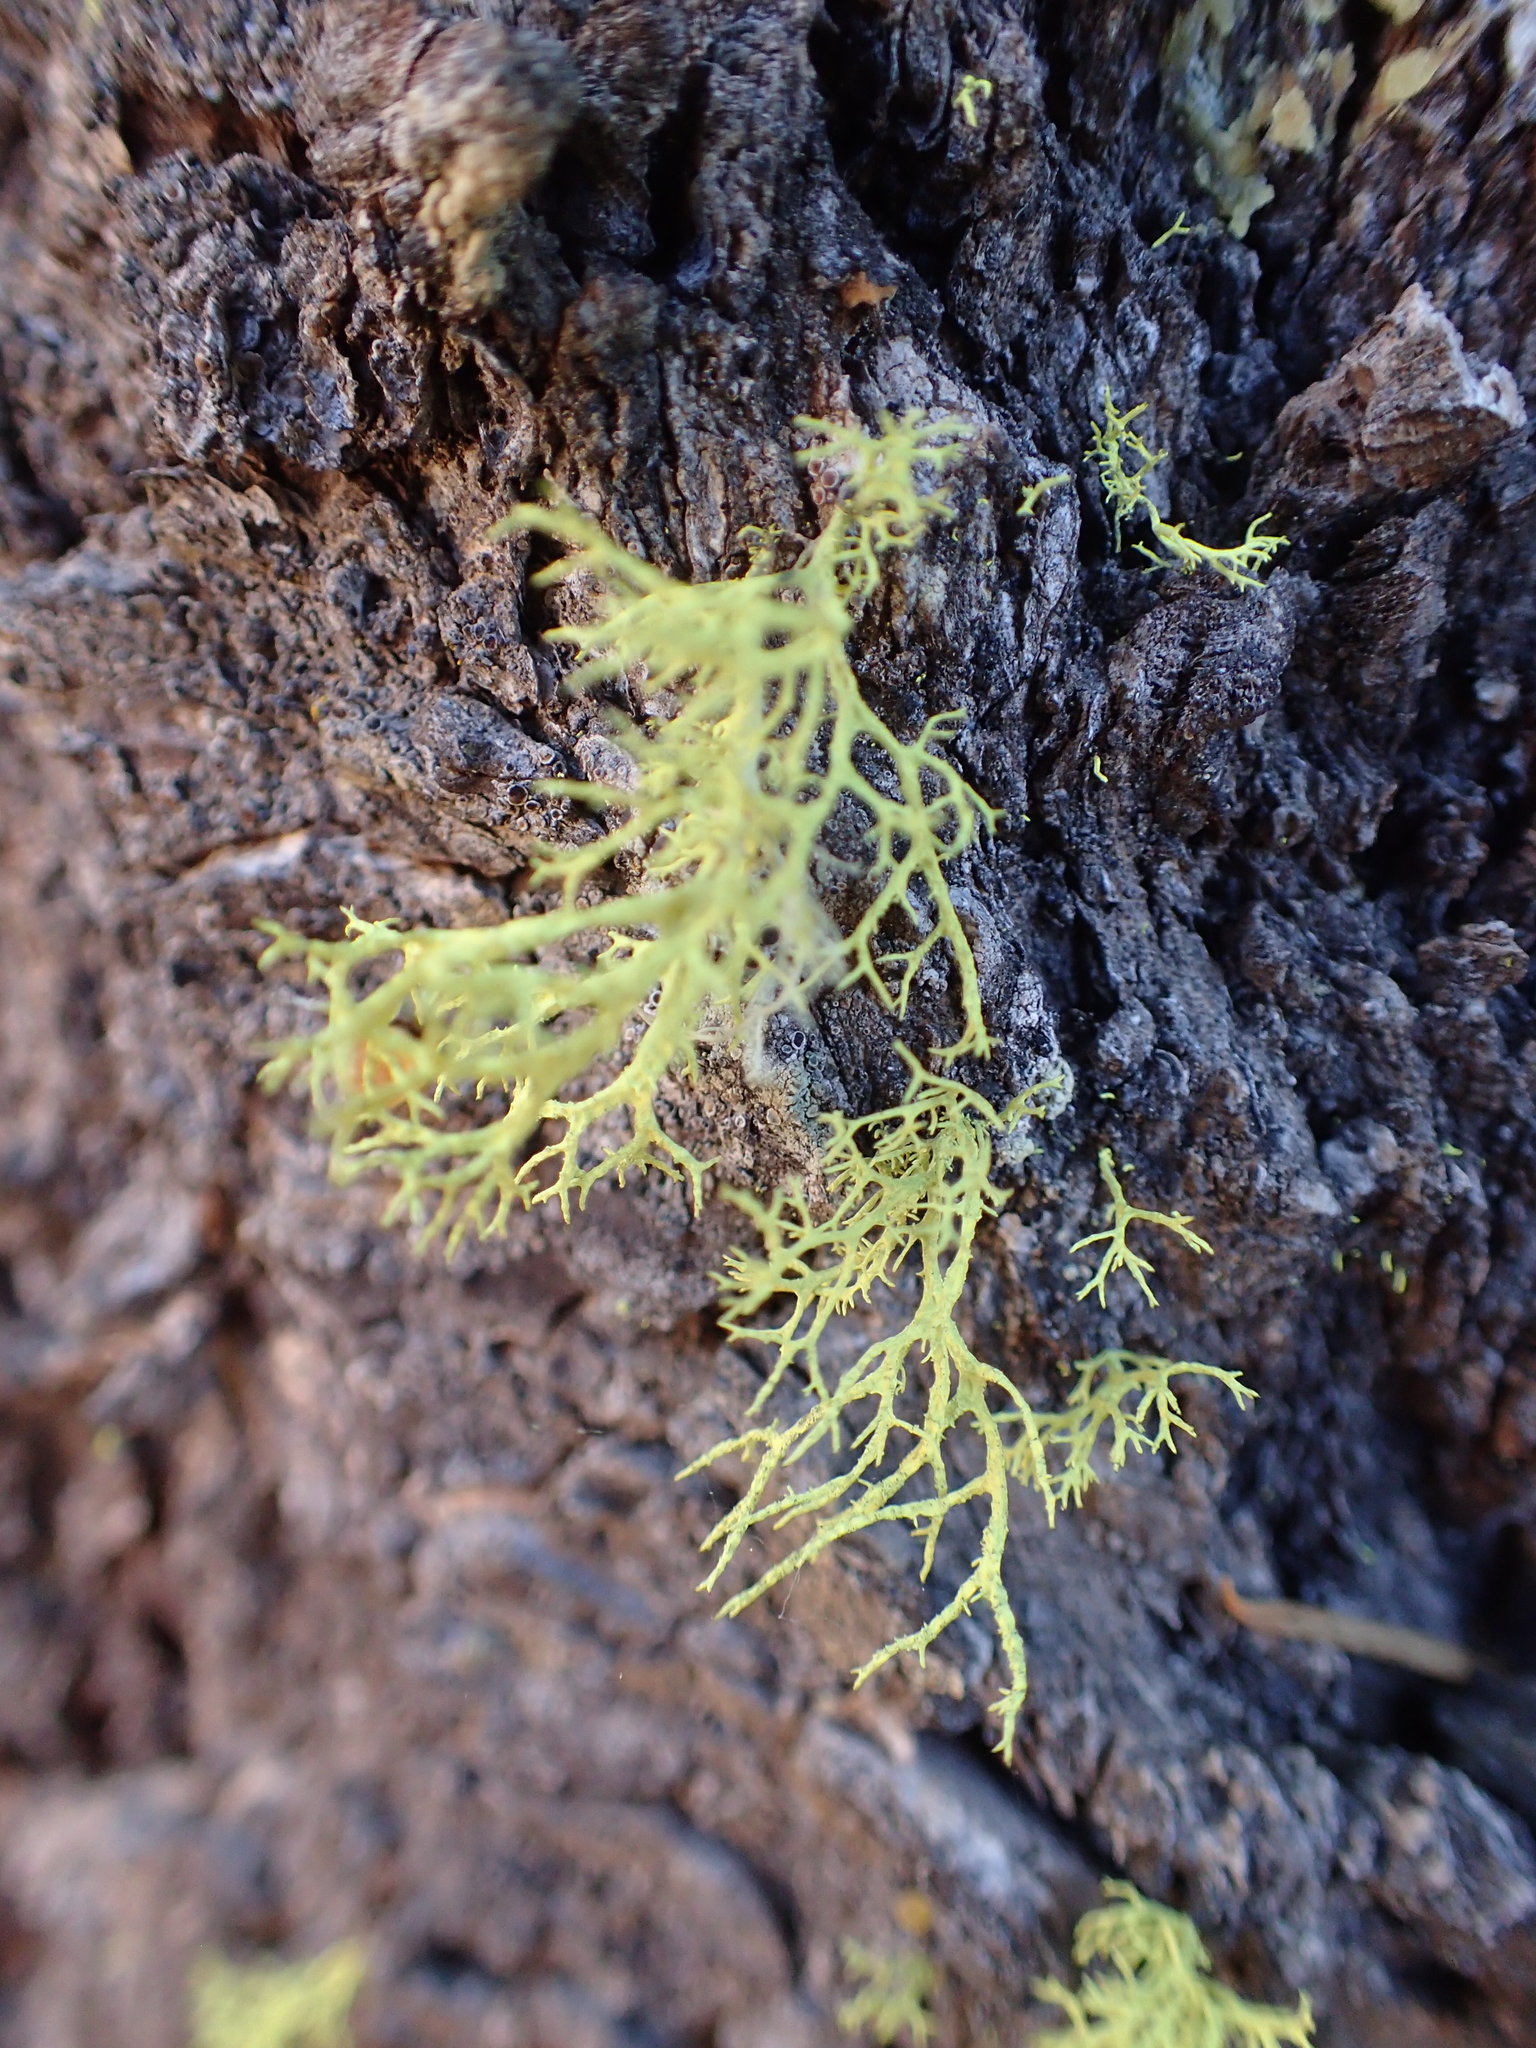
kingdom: Fungi
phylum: Ascomycota
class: Lecanoromycetes
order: Lecanorales
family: Parmeliaceae
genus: Letharia
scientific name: Letharia vulpina
